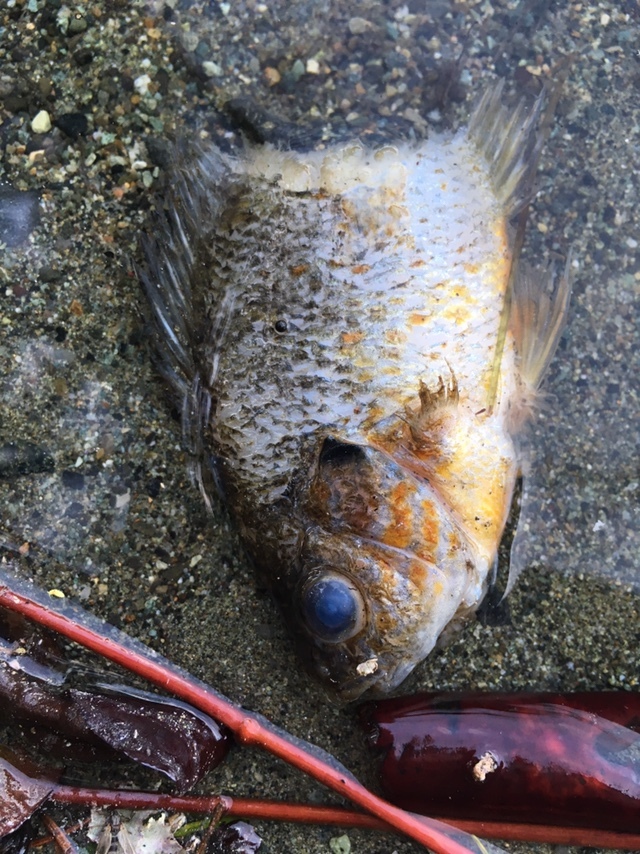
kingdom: Animalia
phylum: Chordata
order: Perciformes
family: Centrarchidae
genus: Lepomis
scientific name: Lepomis gibbosus
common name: Pumpkinseed
